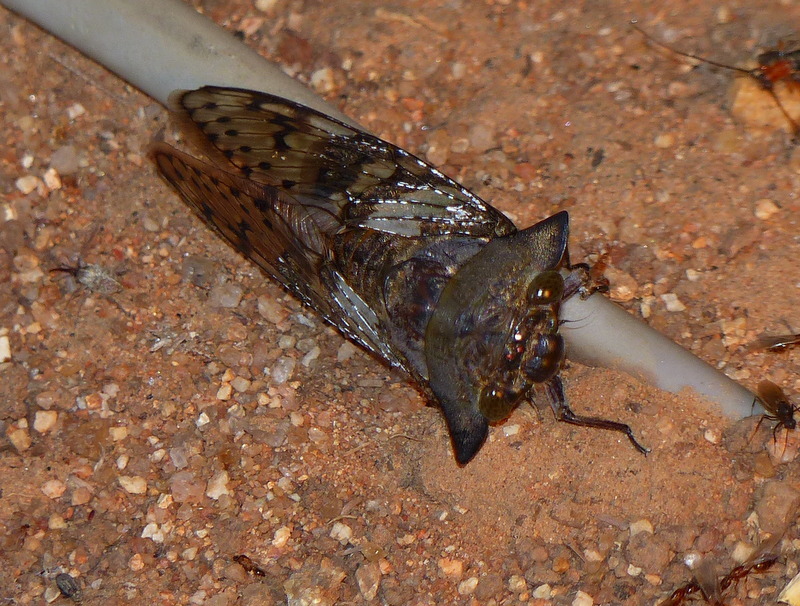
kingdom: Animalia
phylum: Arthropoda
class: Insecta
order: Hemiptera
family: Cicadidae
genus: Ioba
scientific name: Ioba leopardina
